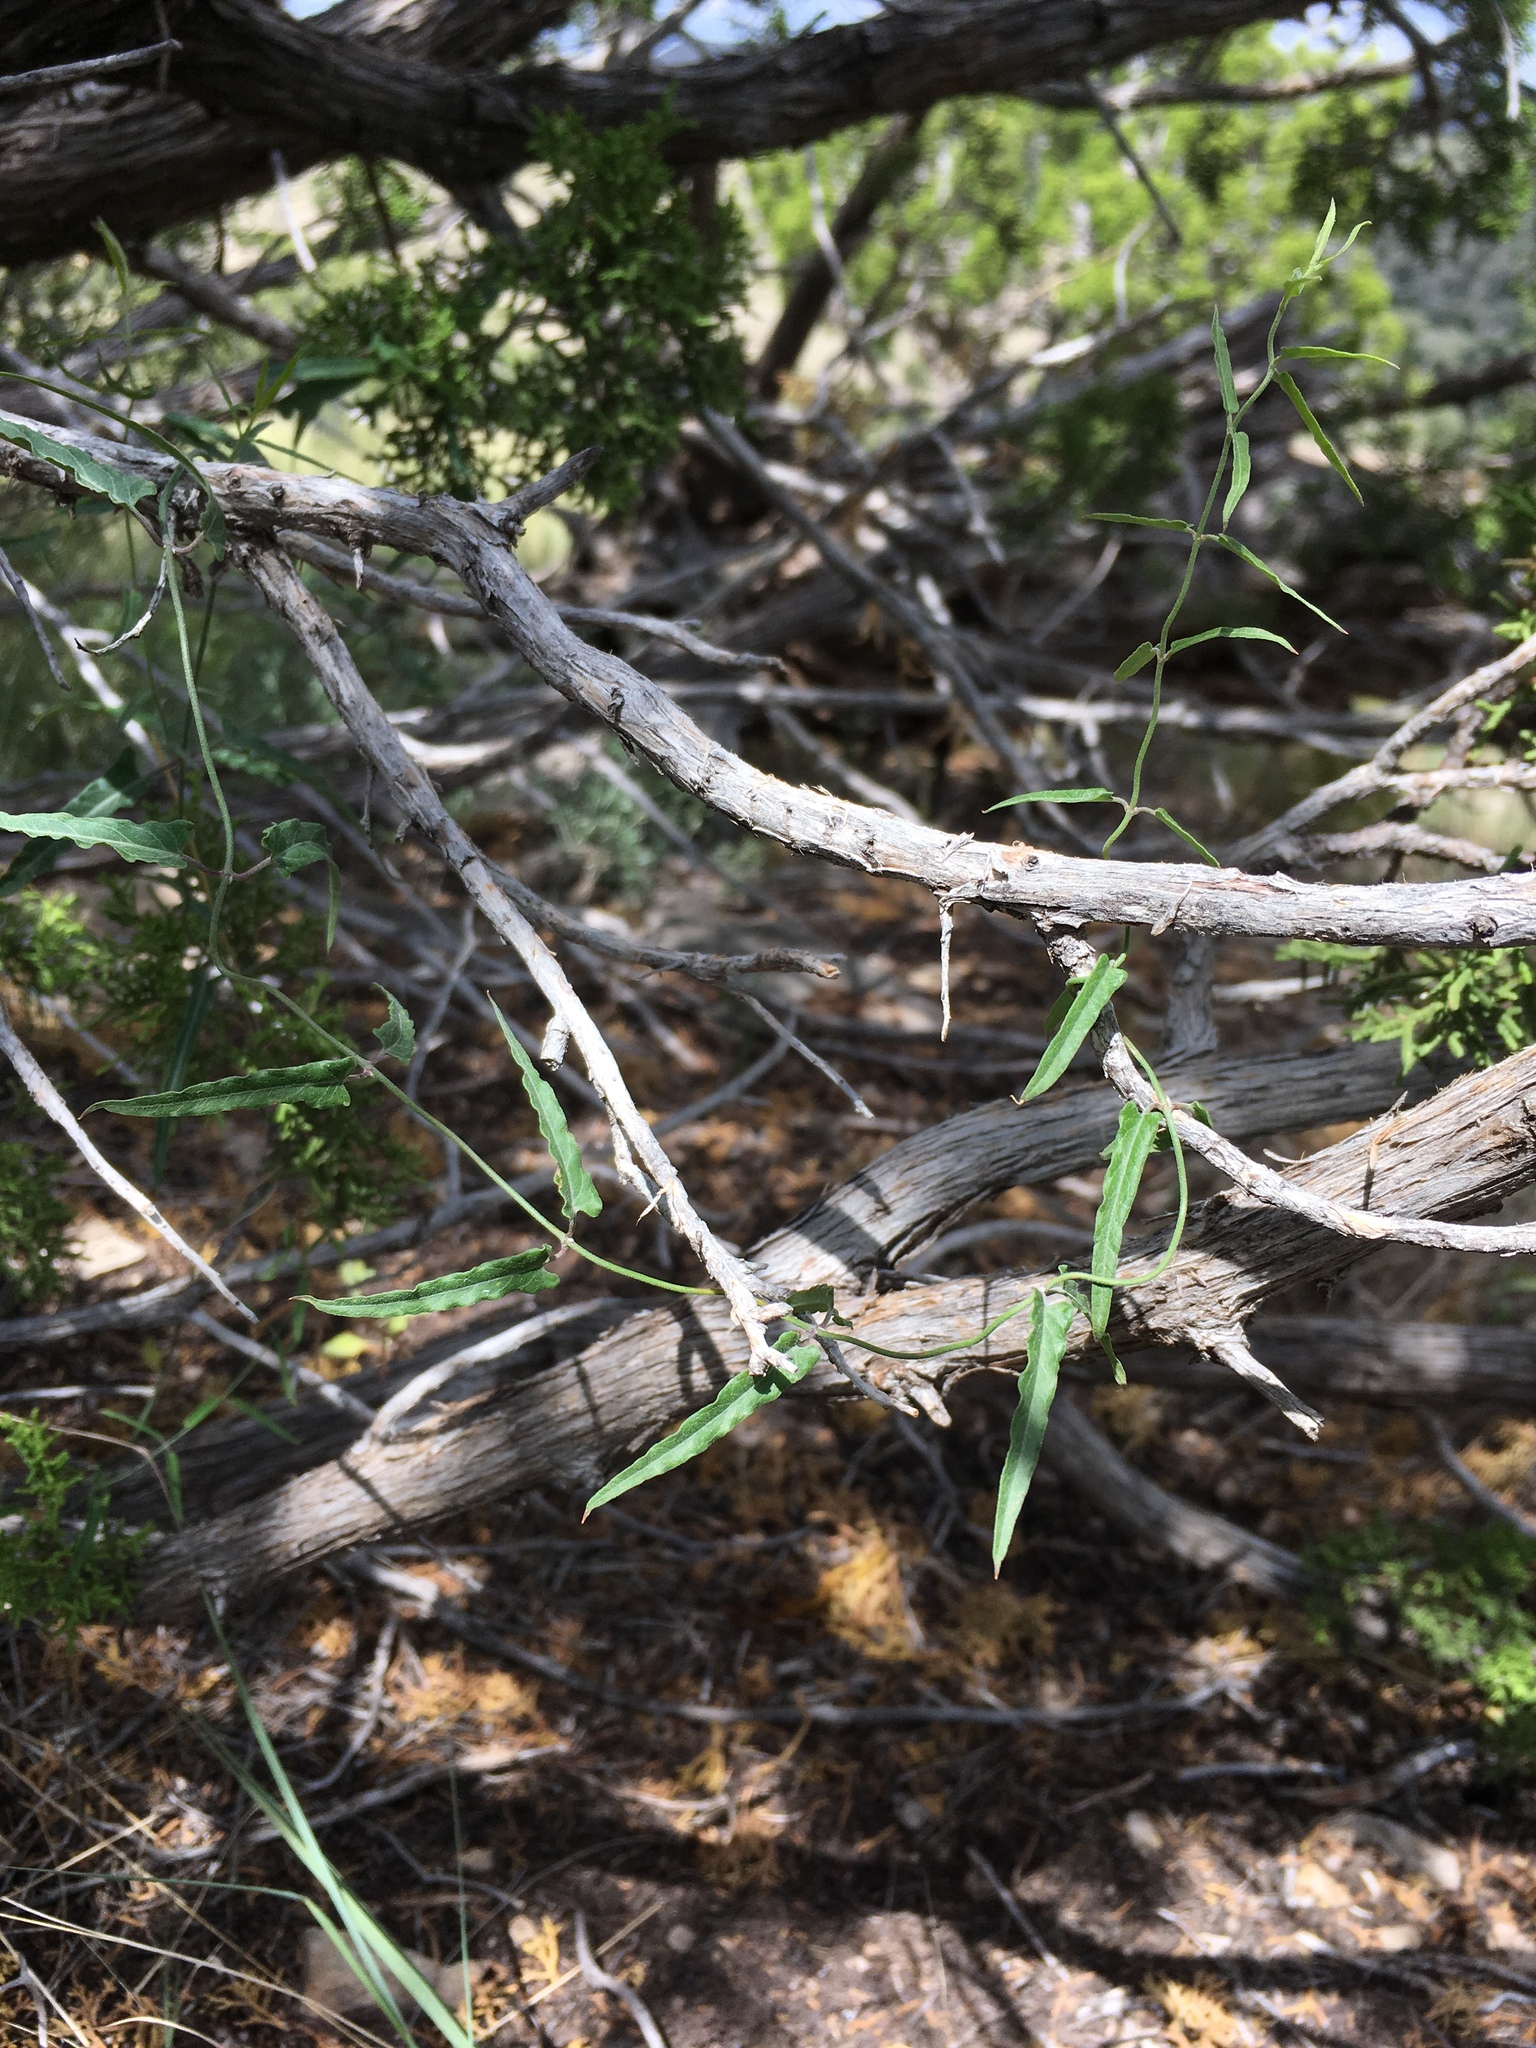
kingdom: Plantae
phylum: Tracheophyta
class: Magnoliopsida
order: Gentianales
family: Apocynaceae
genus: Funastrum
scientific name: Funastrum crispum
